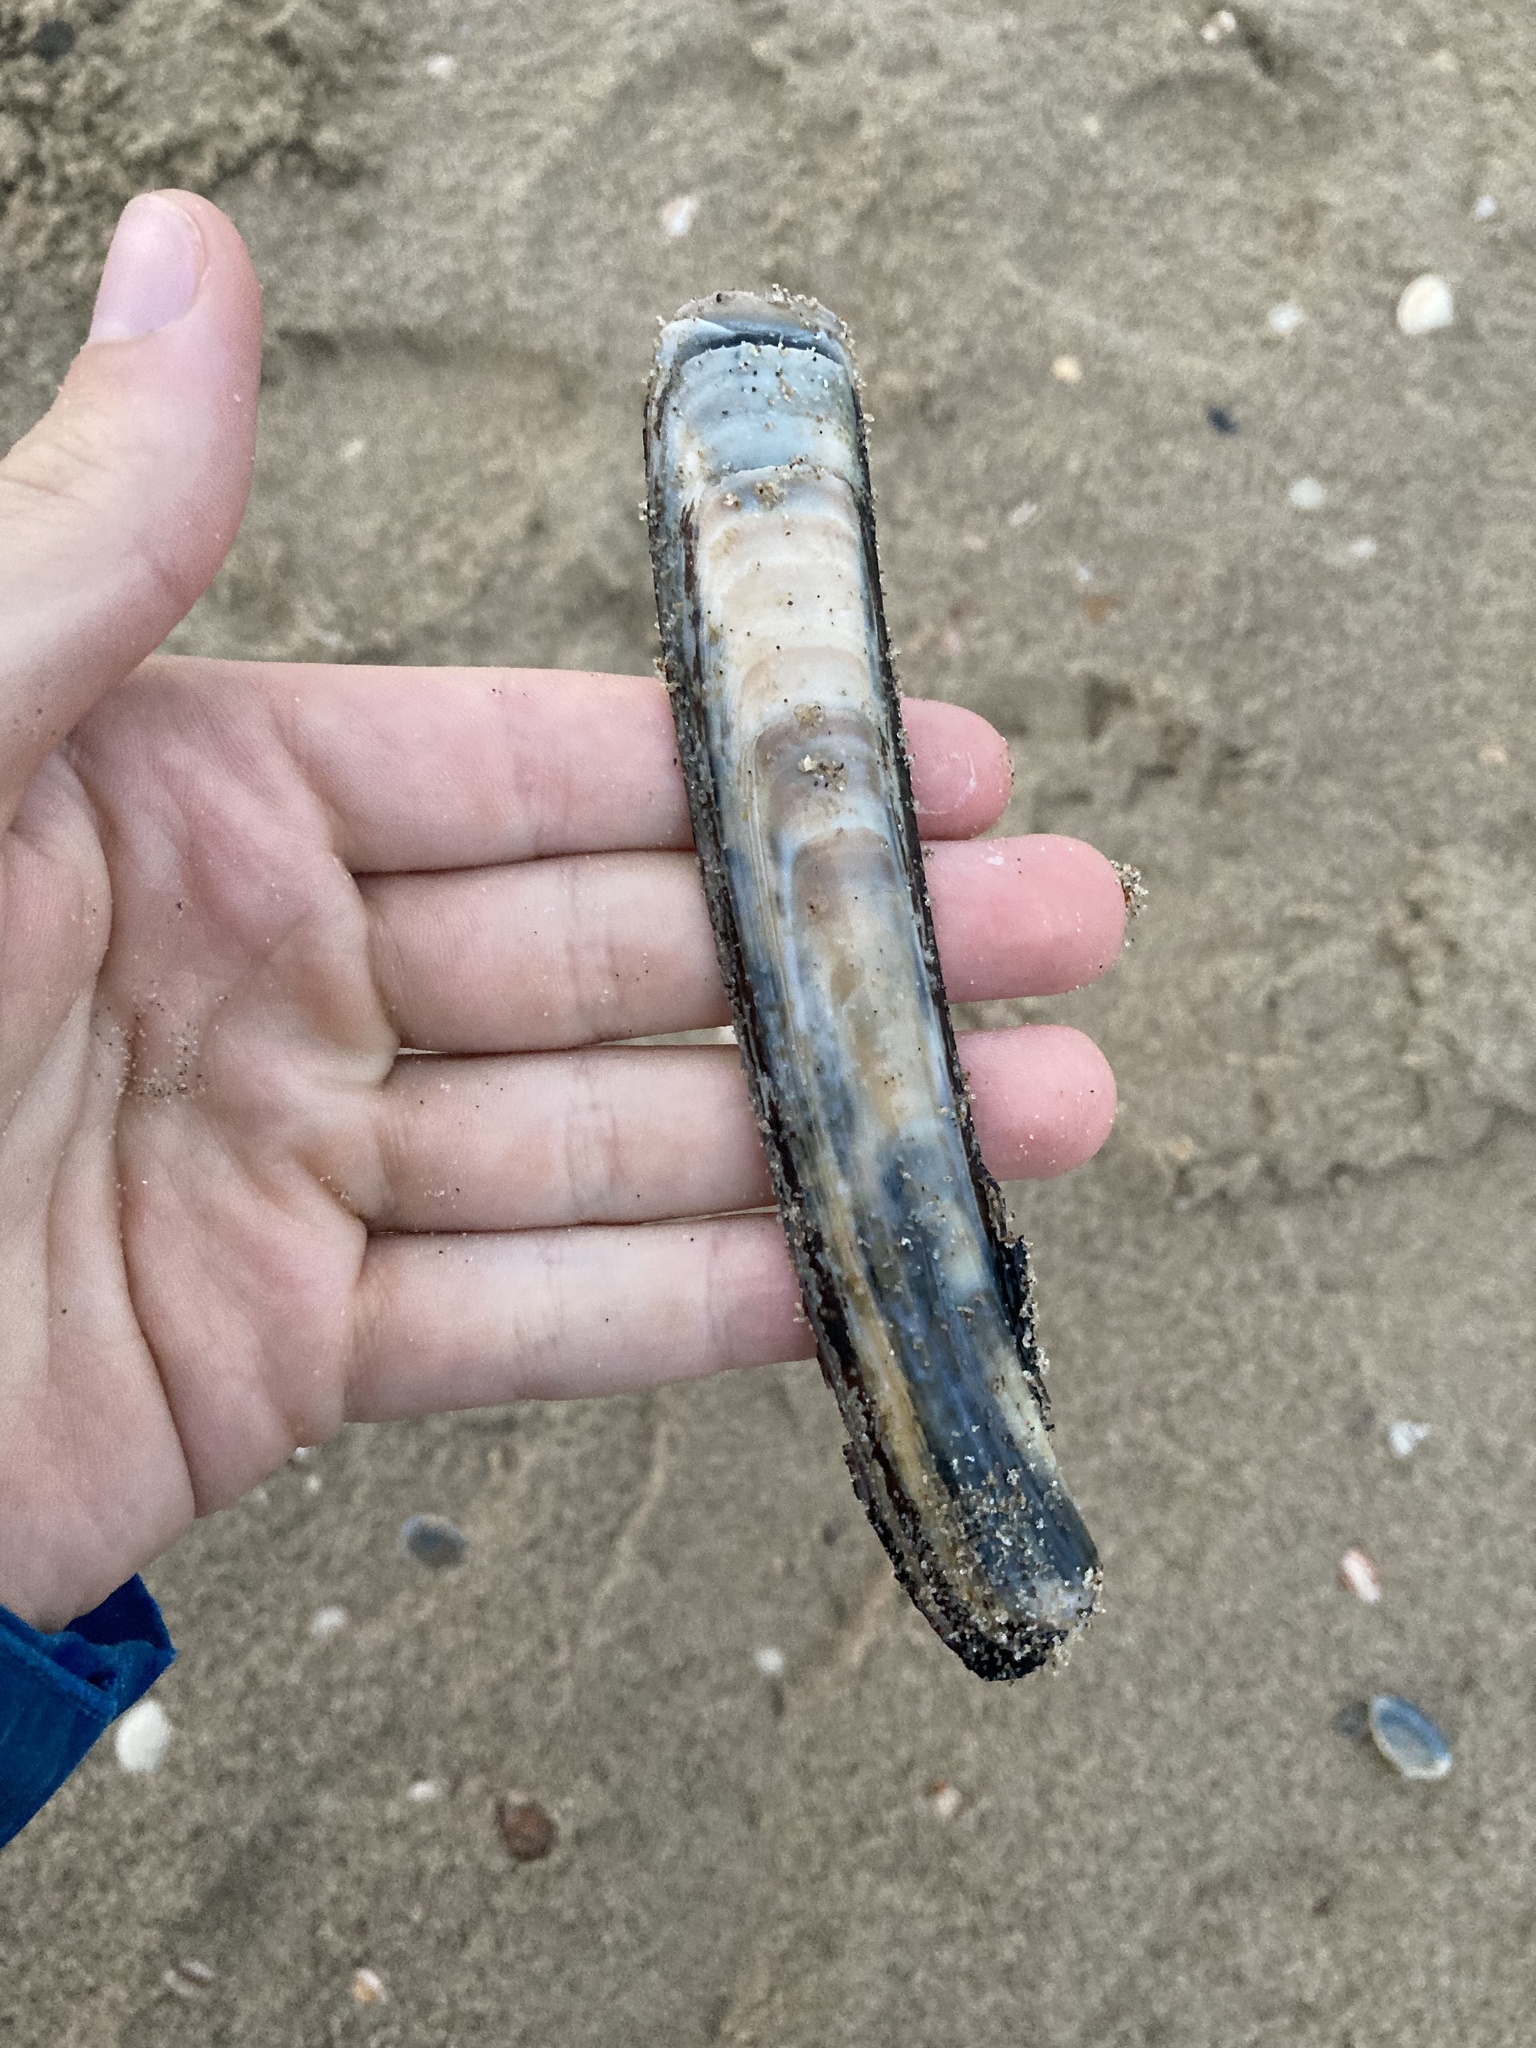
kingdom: Animalia
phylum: Mollusca
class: Bivalvia
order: Adapedonta
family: Pharidae
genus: Ensis
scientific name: Ensis leei
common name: American jack knife clam
